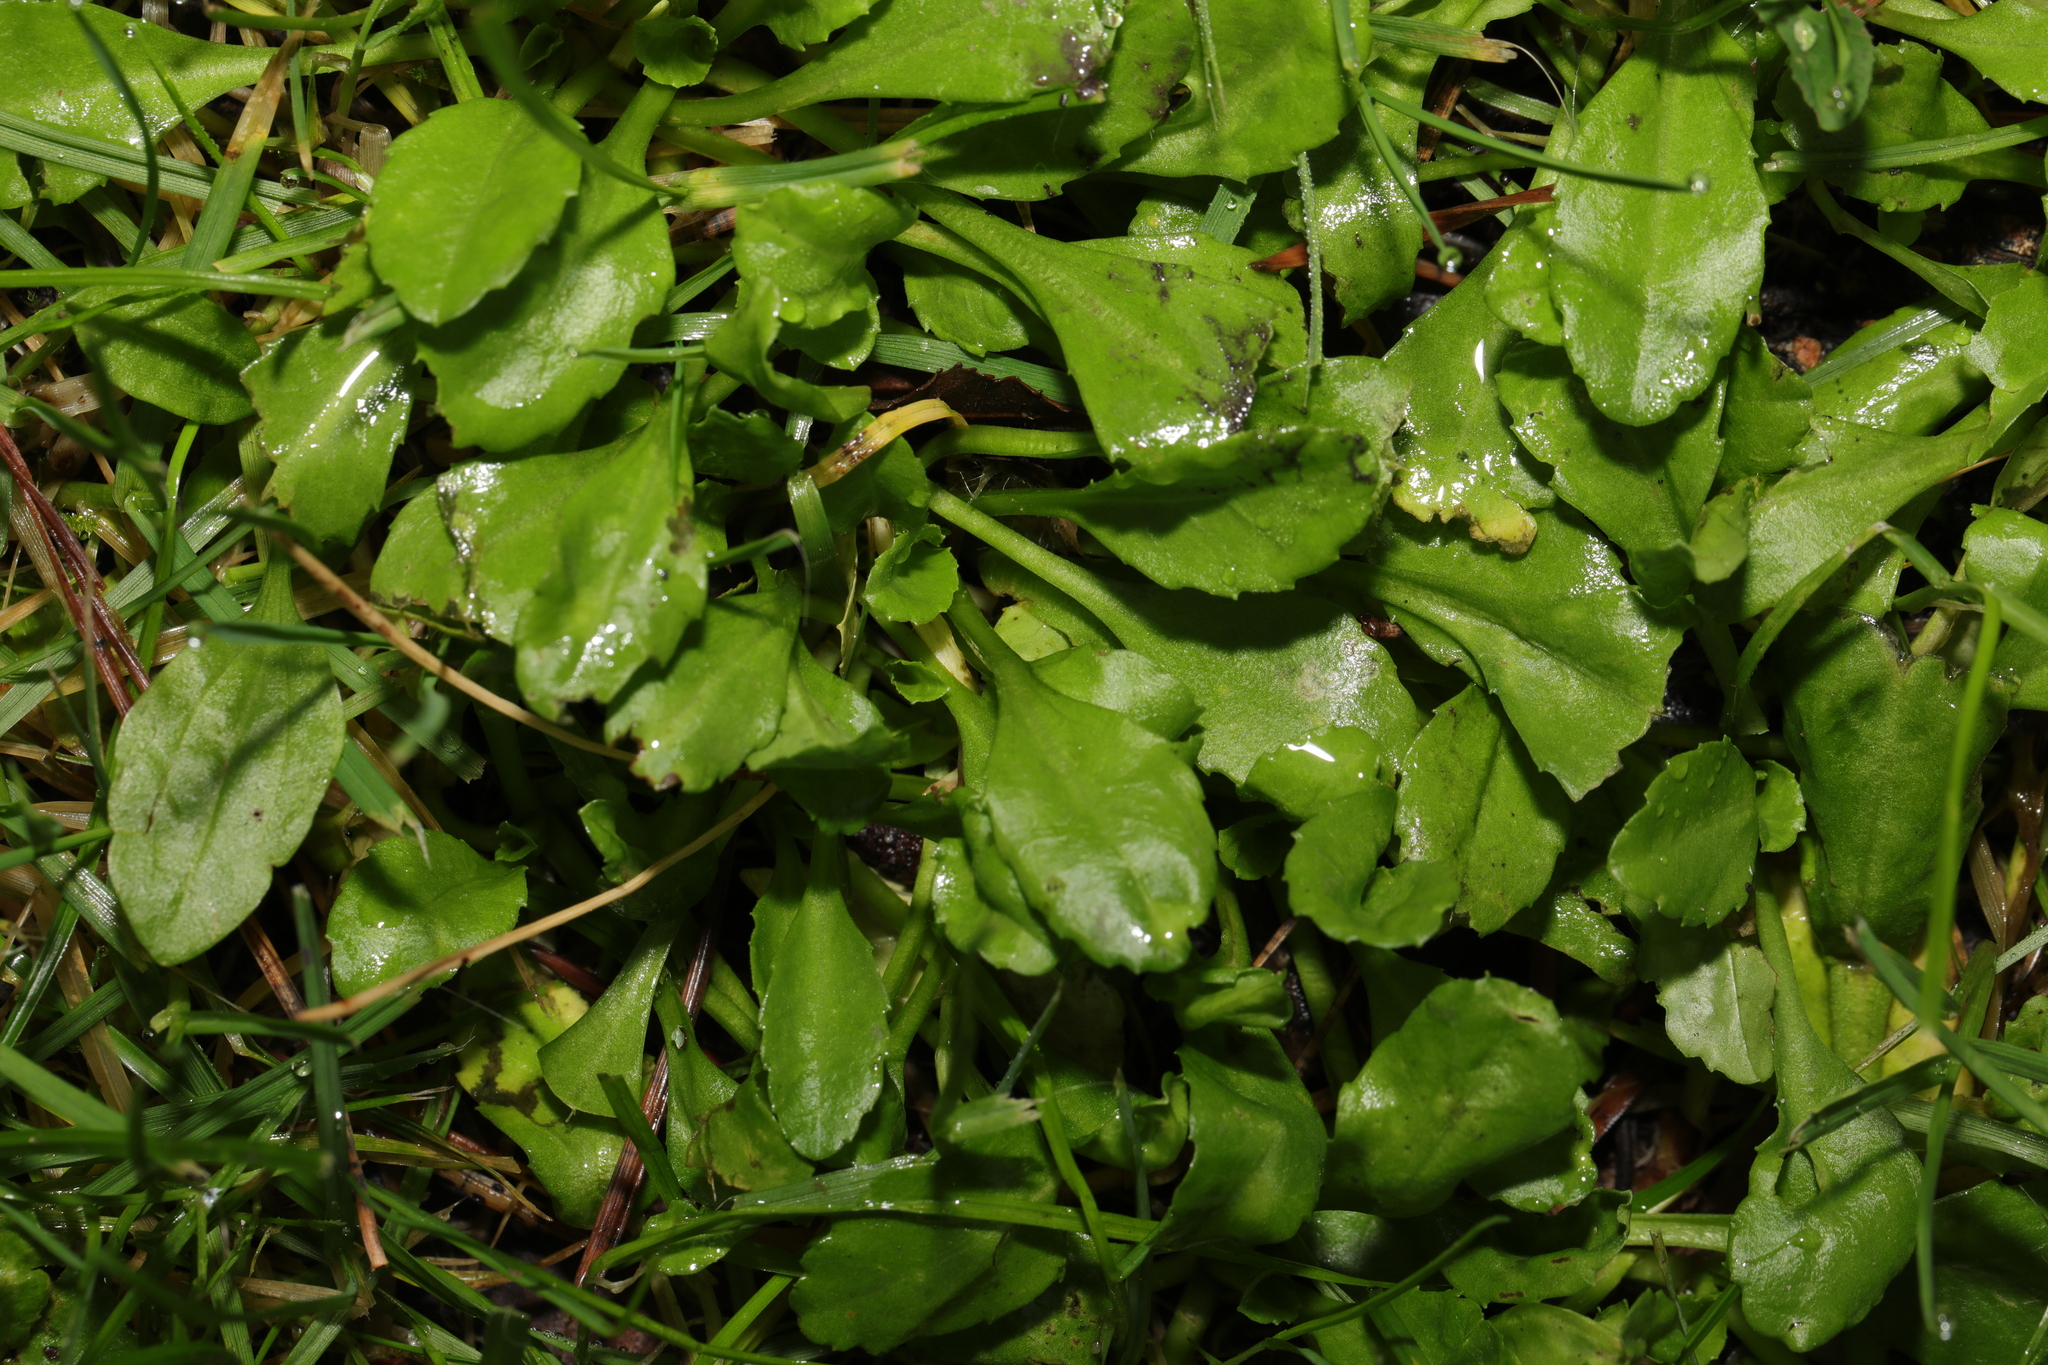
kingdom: Plantae
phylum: Tracheophyta
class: Magnoliopsida
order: Asterales
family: Asteraceae
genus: Bellis
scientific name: Bellis perennis
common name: Lawndaisy
